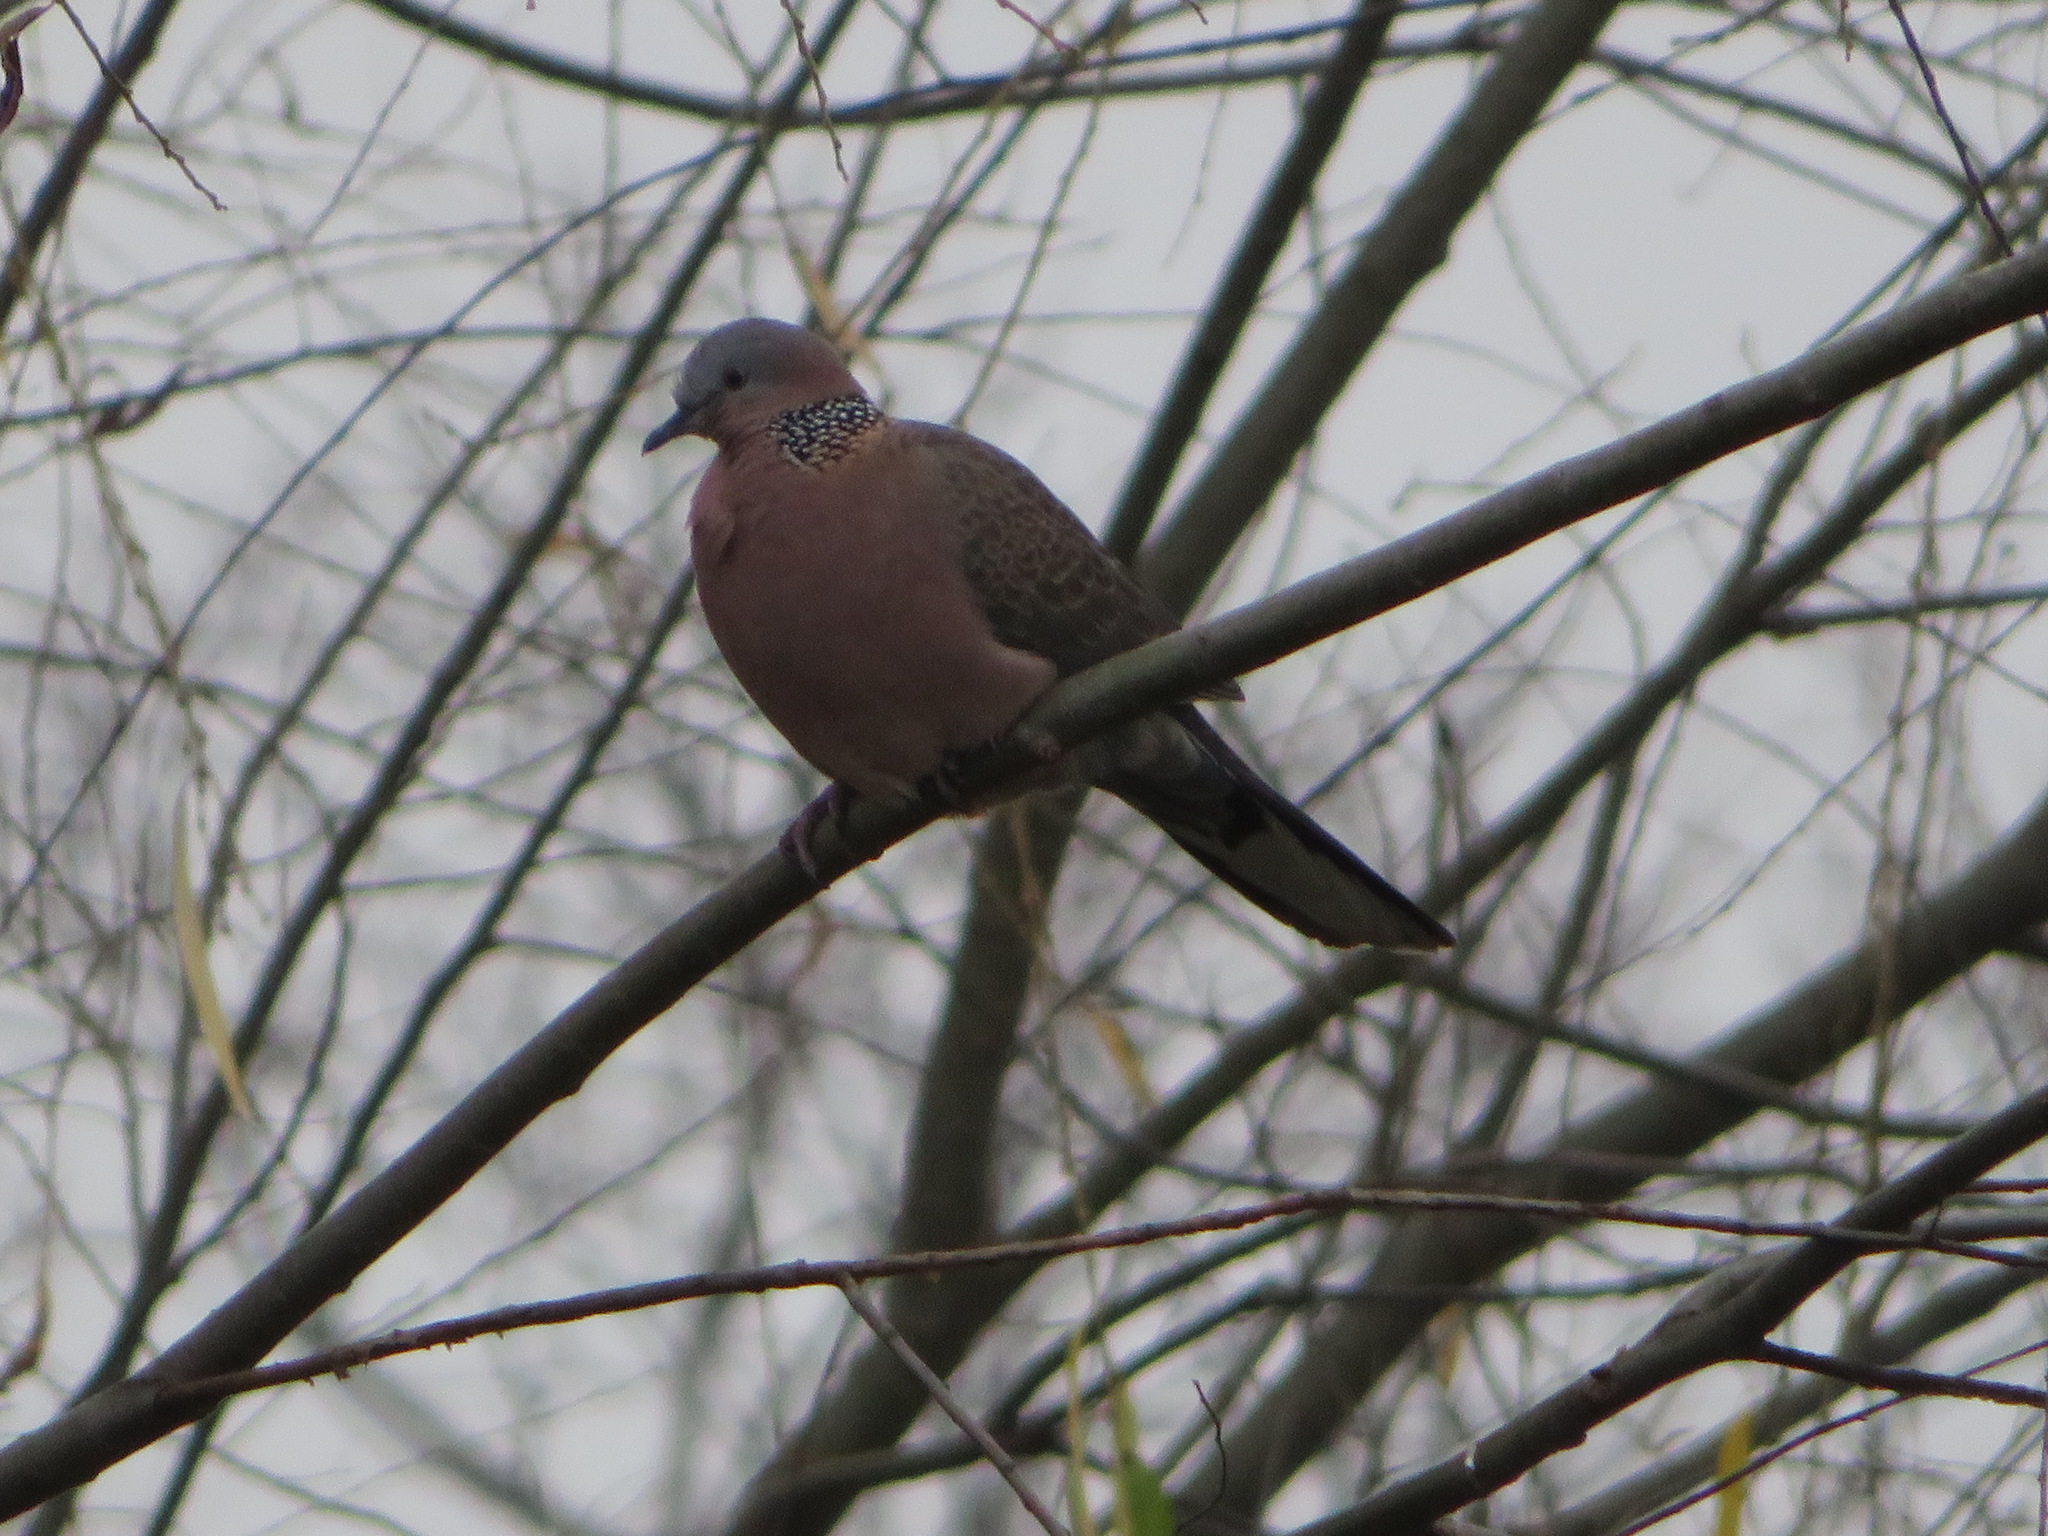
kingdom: Animalia
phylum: Chordata
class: Aves
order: Columbiformes
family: Columbidae
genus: Spilopelia
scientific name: Spilopelia chinensis
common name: Spotted dove
